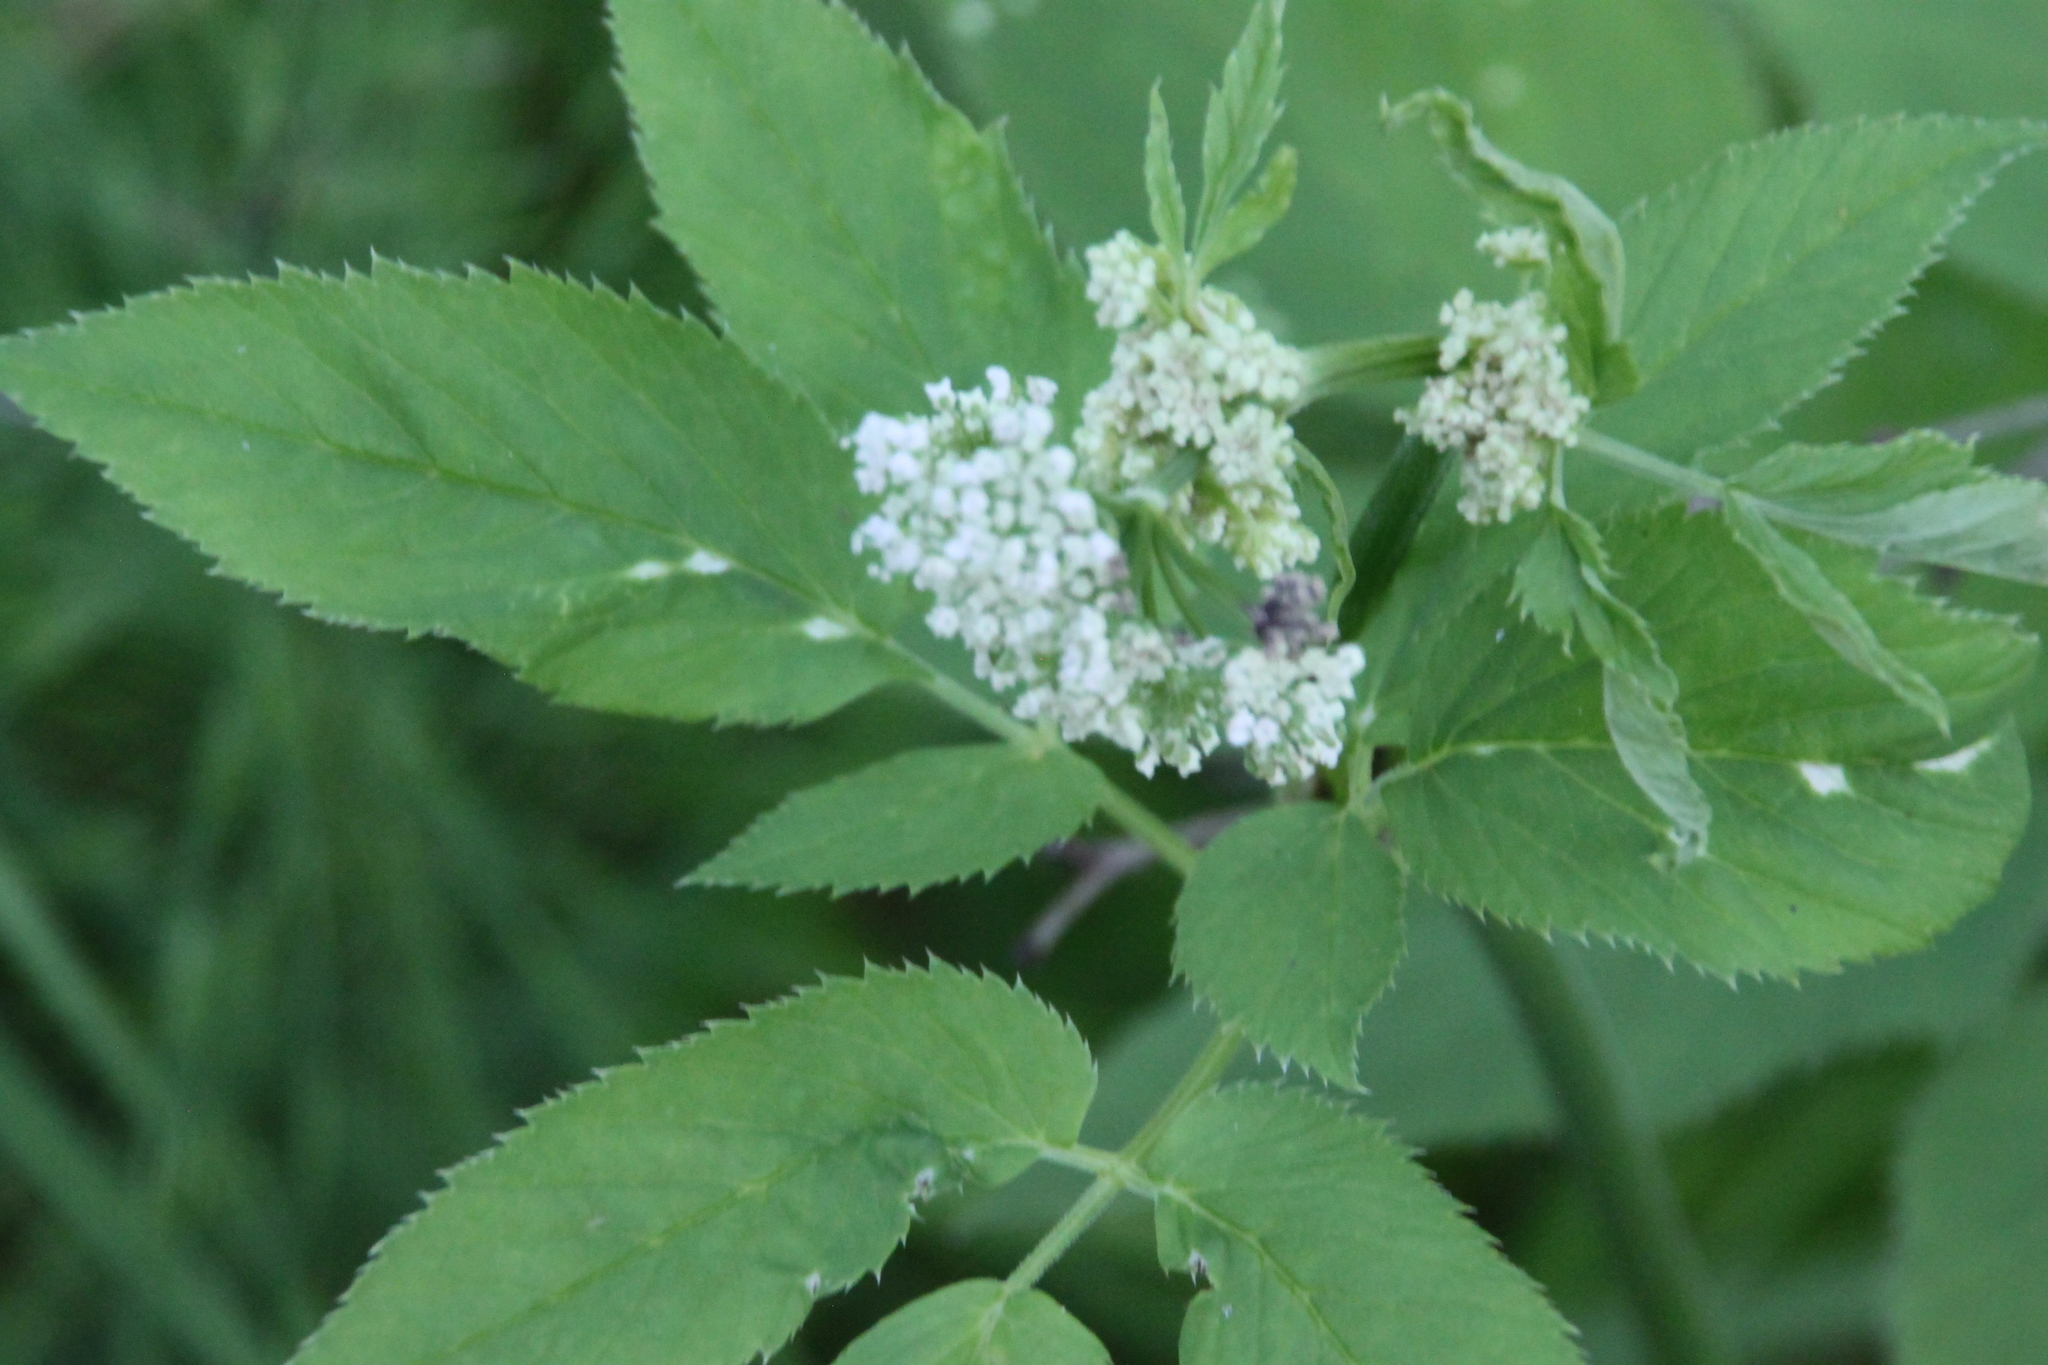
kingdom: Plantae
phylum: Tracheophyta
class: Magnoliopsida
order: Apiales
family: Apiaceae
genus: Aegopodium
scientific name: Aegopodium podagraria
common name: Ground-elder
